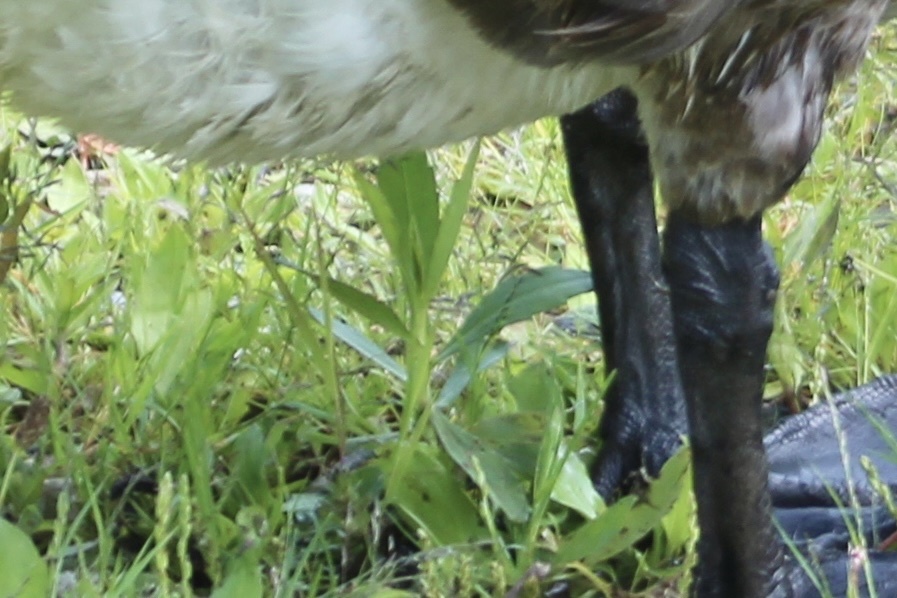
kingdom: Plantae
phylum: Tracheophyta
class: Magnoliopsida
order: Asterales
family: Asteraceae
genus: Erechtites
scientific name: Erechtites hieraciifolius
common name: American burnweed
